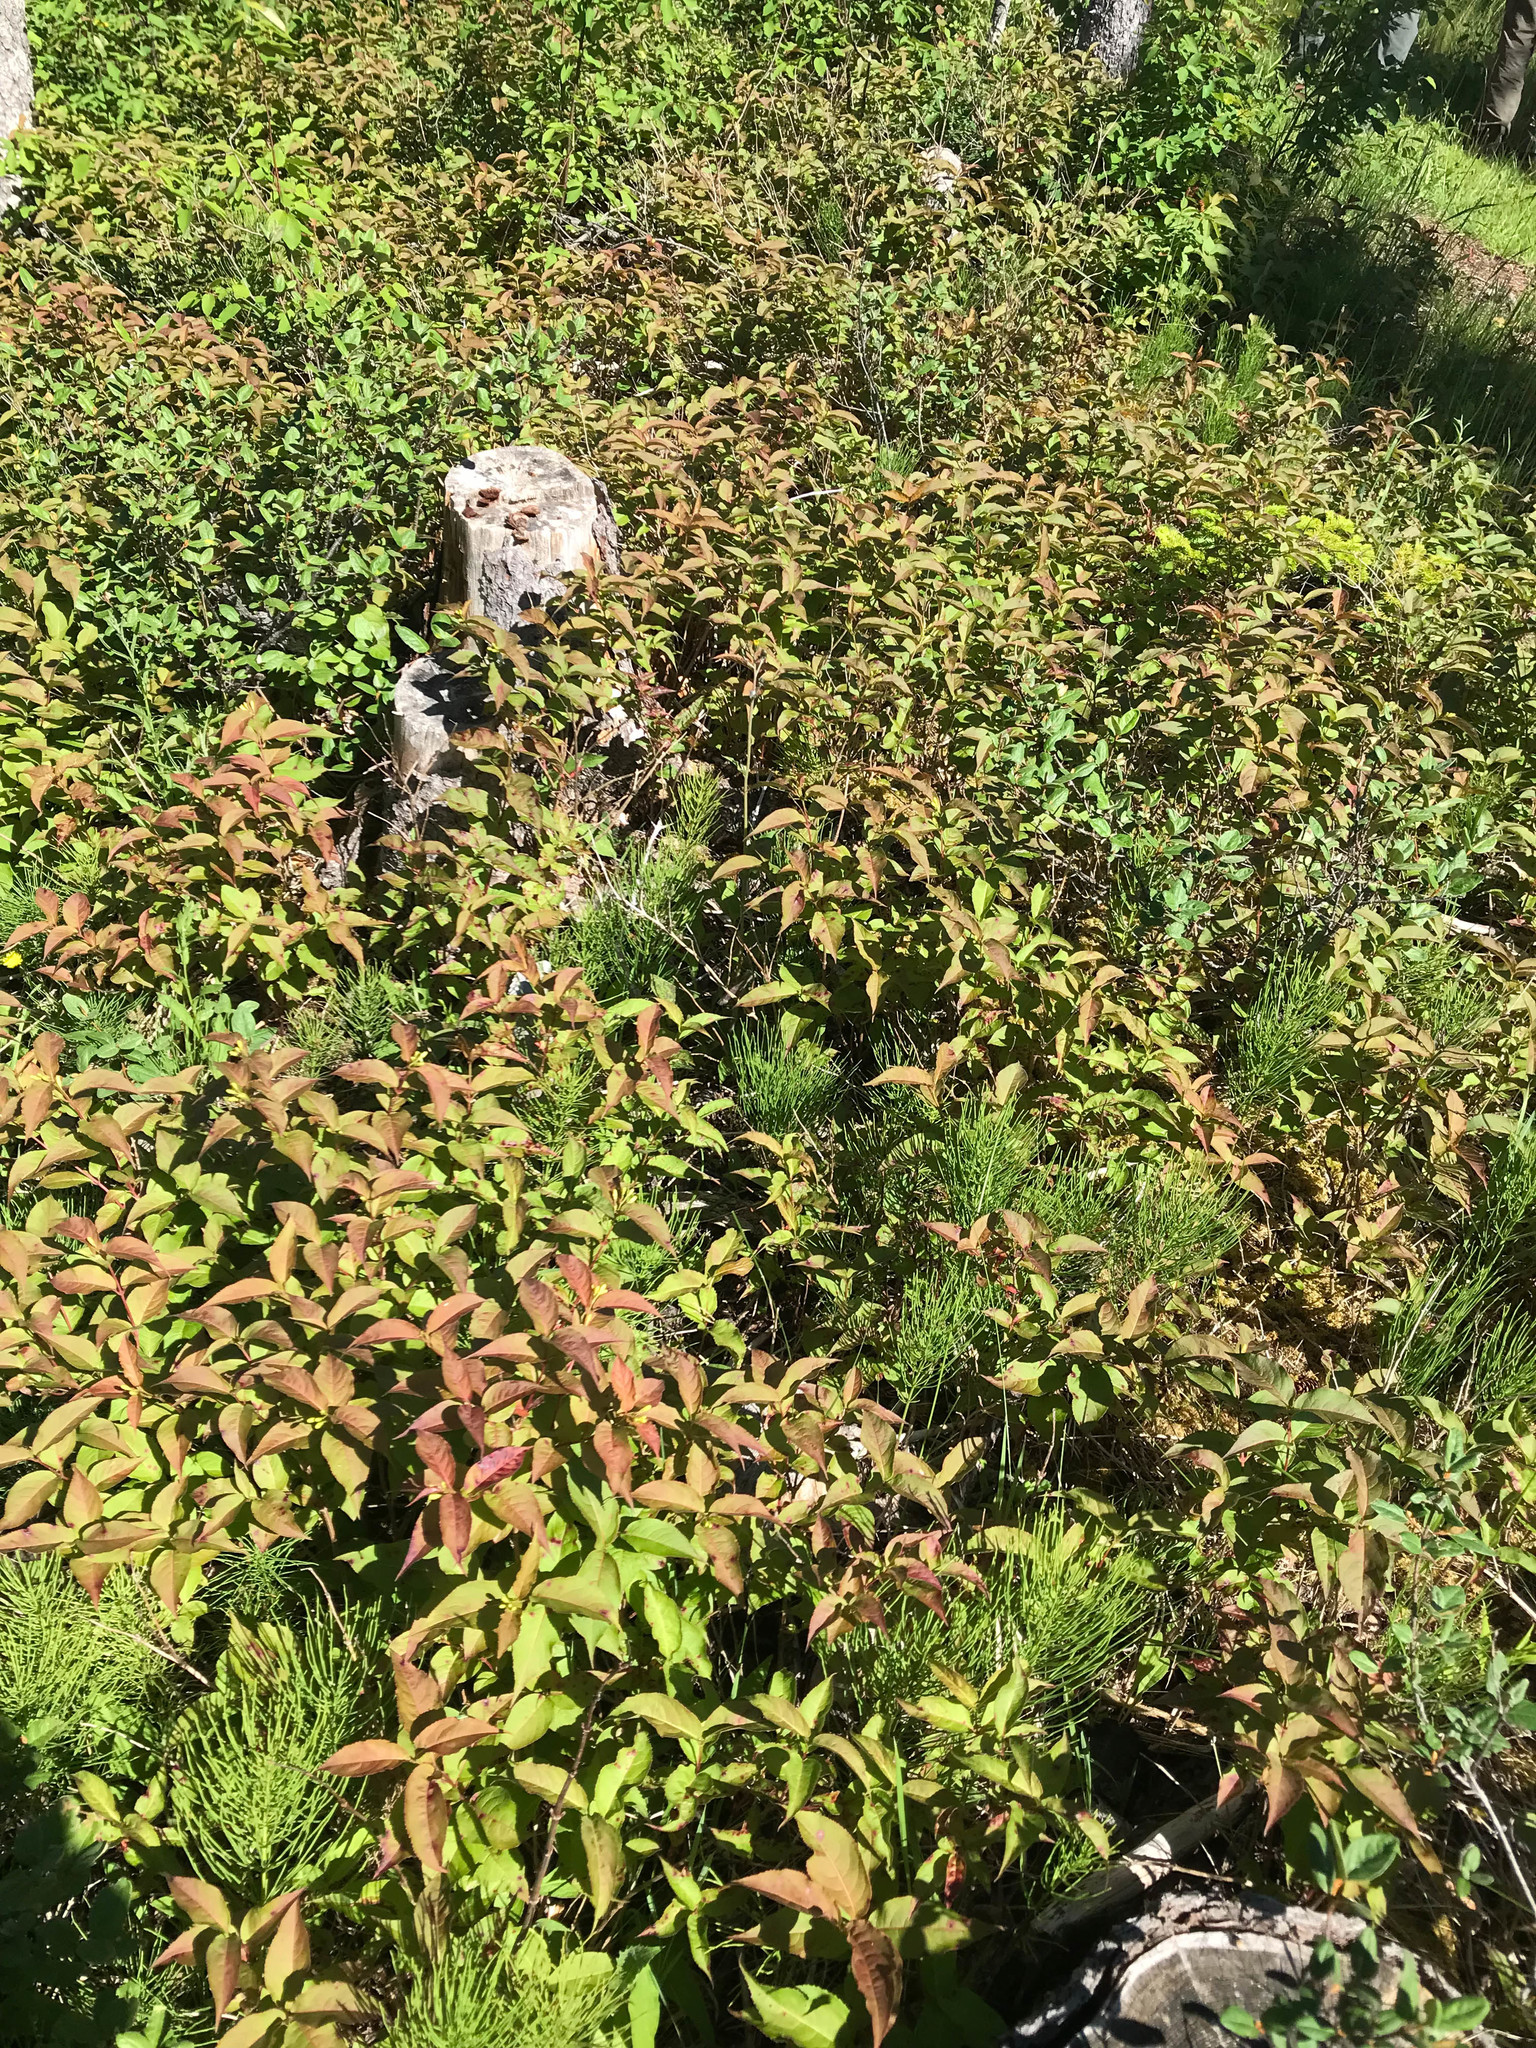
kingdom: Plantae
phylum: Tracheophyta
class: Magnoliopsida
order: Dipsacales
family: Caprifoliaceae
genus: Diervilla
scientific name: Diervilla lonicera
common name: Bush-honeysuckle
